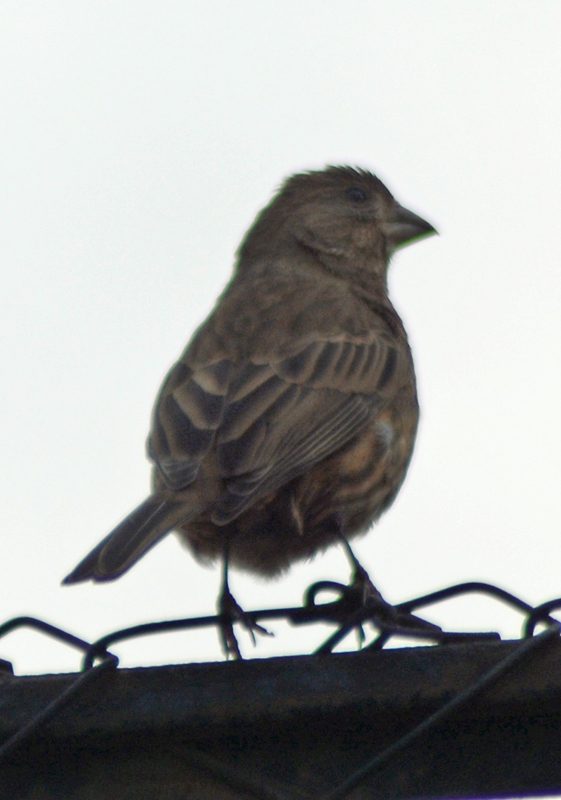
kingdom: Animalia
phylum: Chordata
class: Aves
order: Passeriformes
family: Fringillidae
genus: Haemorhous
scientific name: Haemorhous mexicanus
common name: House finch
